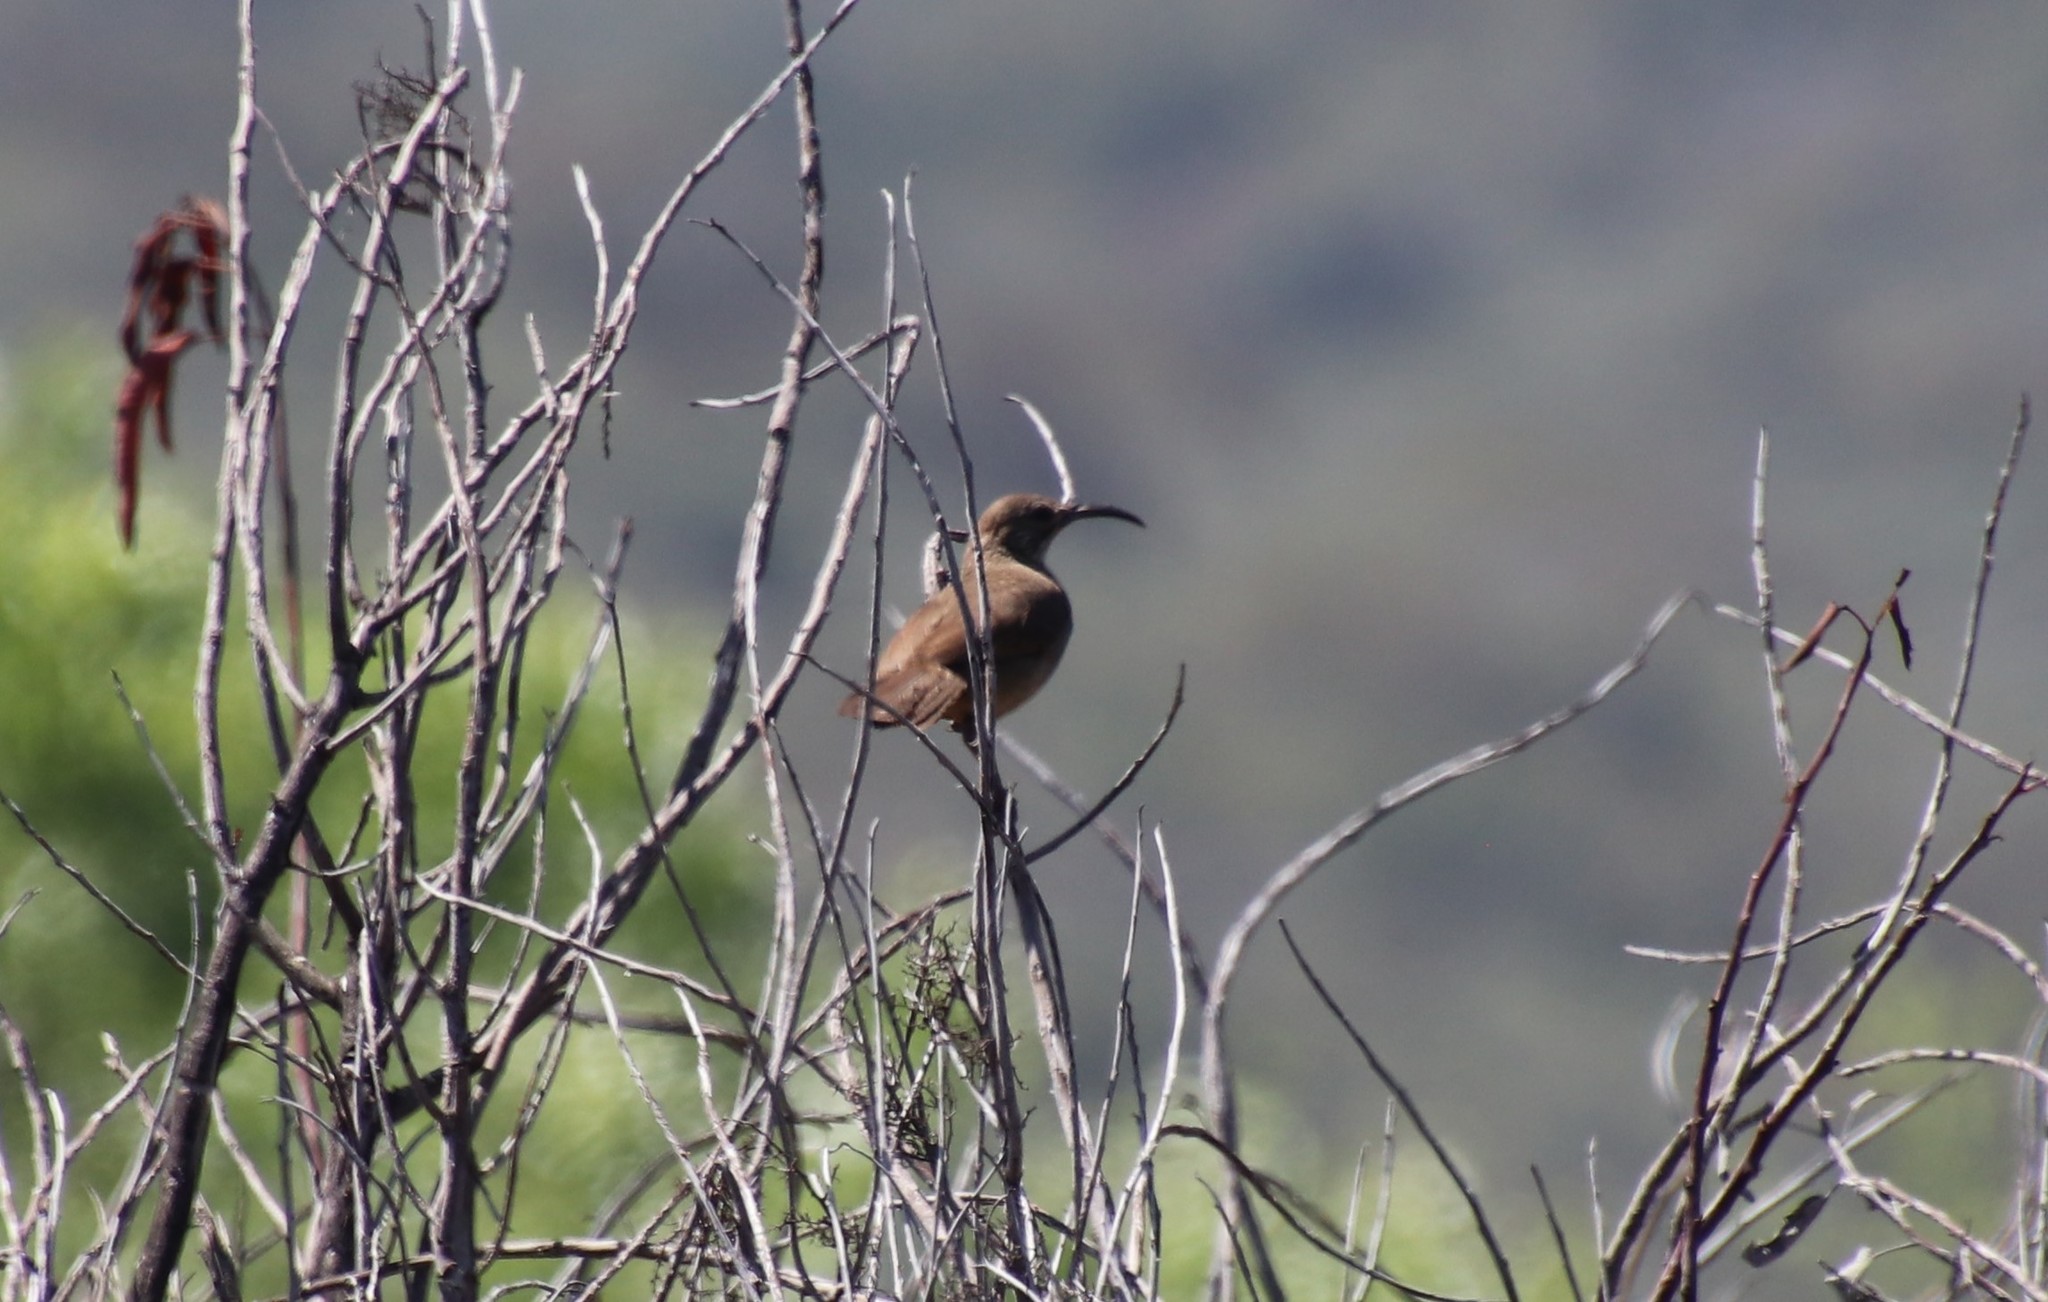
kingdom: Animalia
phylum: Chordata
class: Aves
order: Passeriformes
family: Mimidae
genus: Toxostoma
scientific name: Toxostoma redivivum
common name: California thrasher
